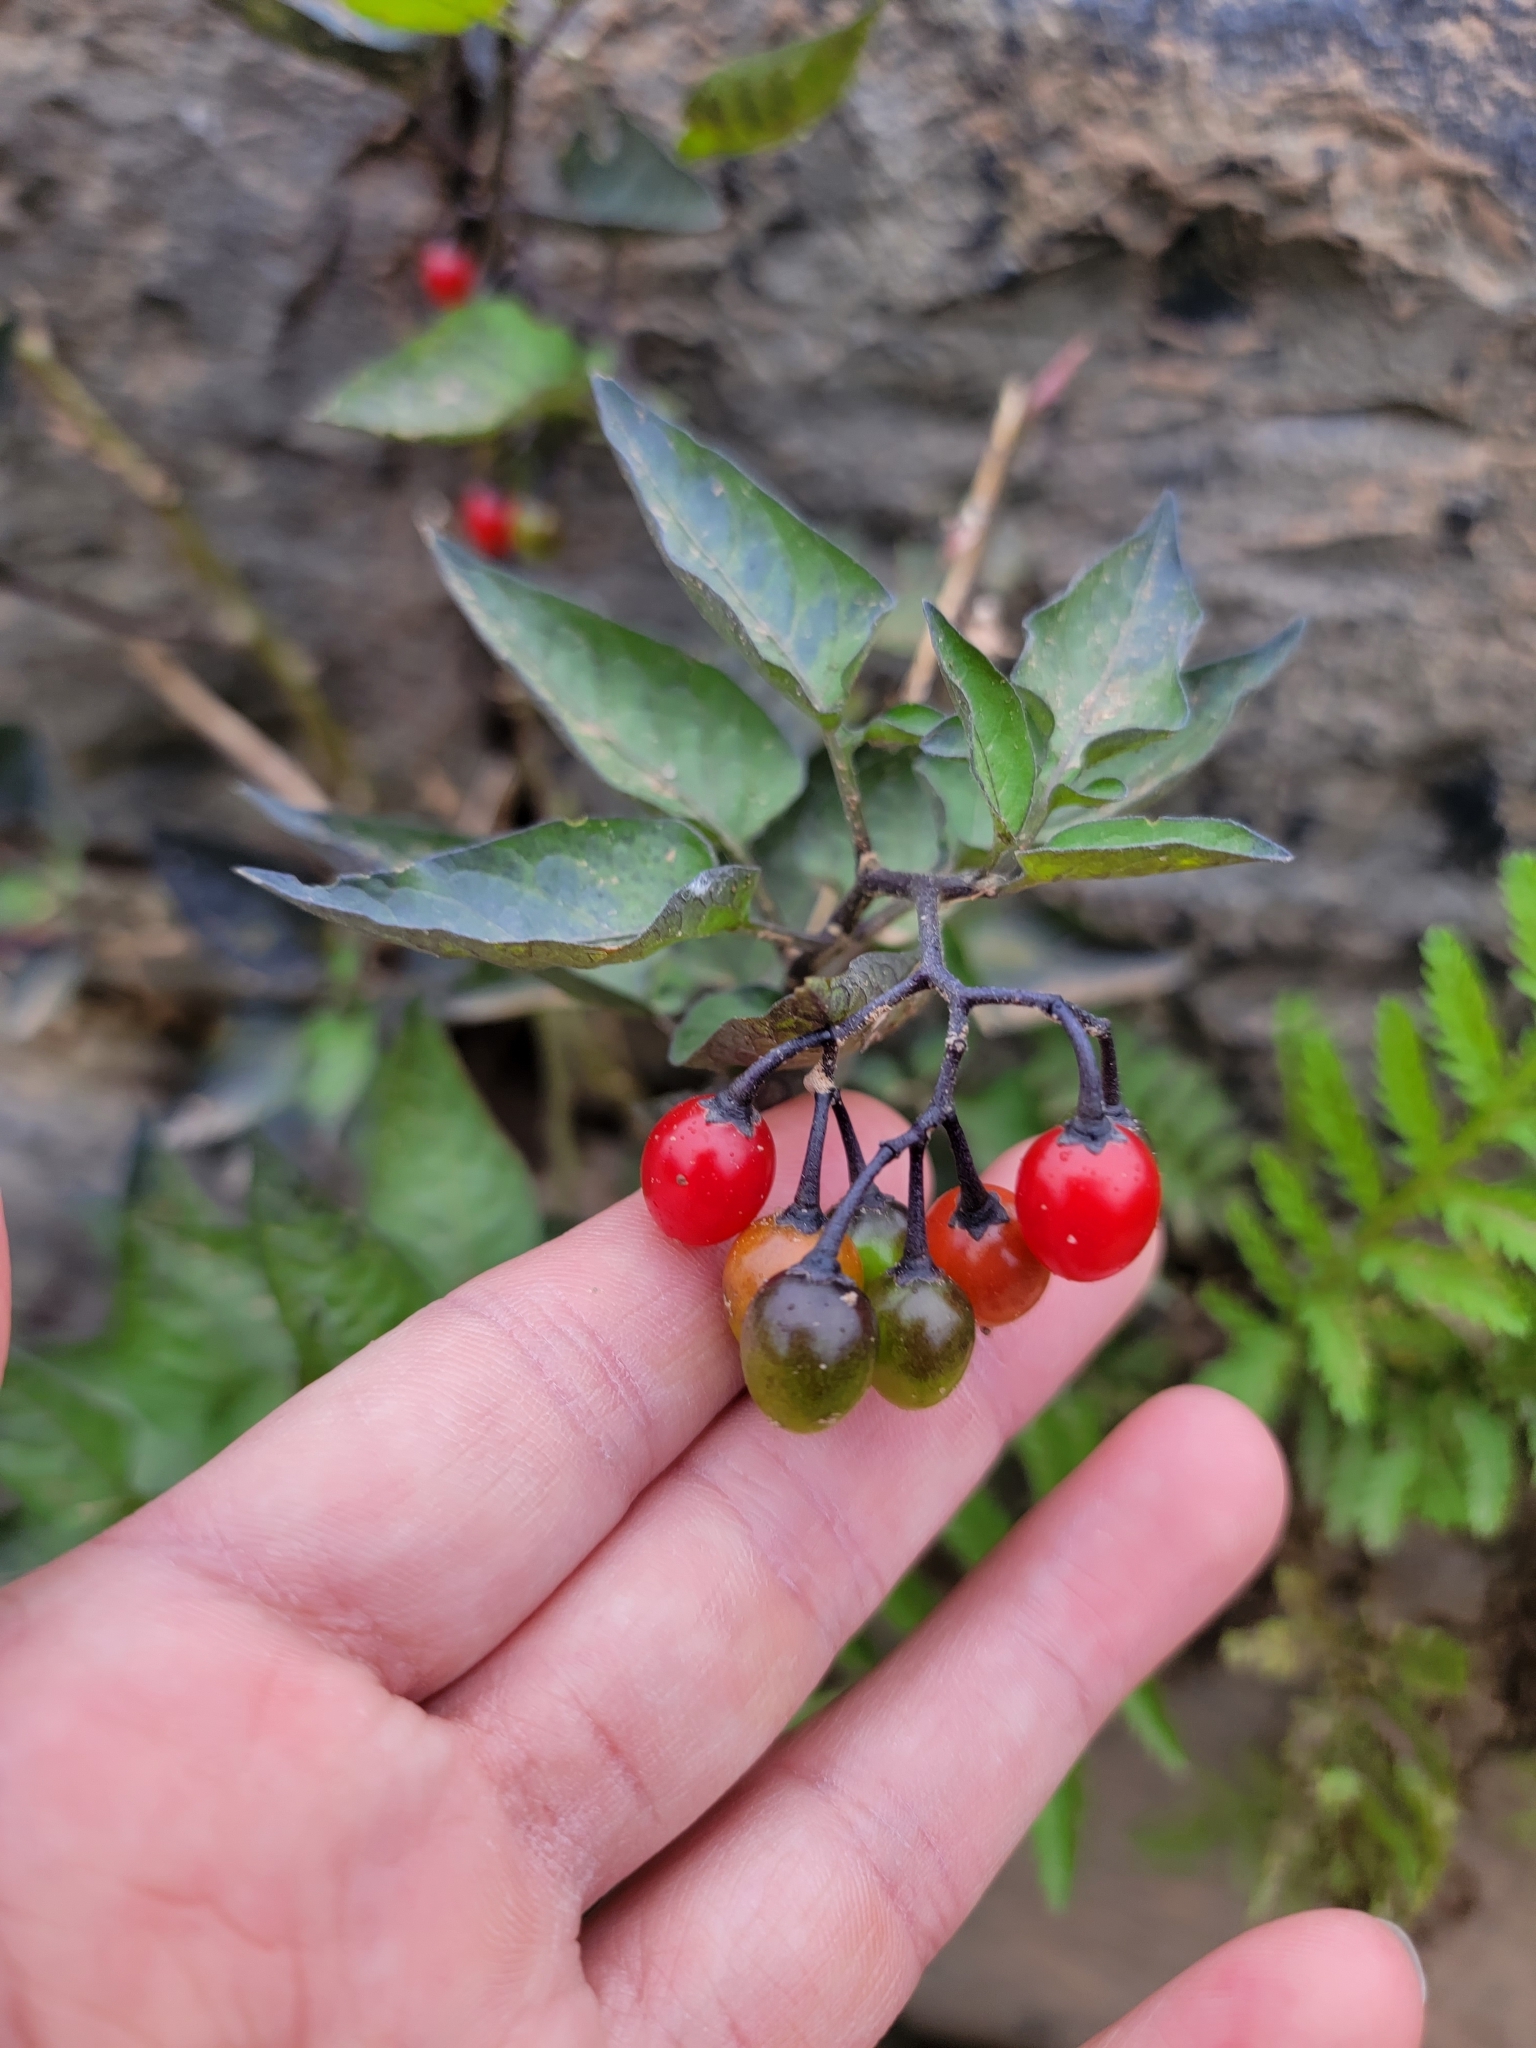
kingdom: Plantae
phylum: Tracheophyta
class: Magnoliopsida
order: Solanales
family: Solanaceae
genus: Solanum
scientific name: Solanum dulcamara
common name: Climbing nightshade
